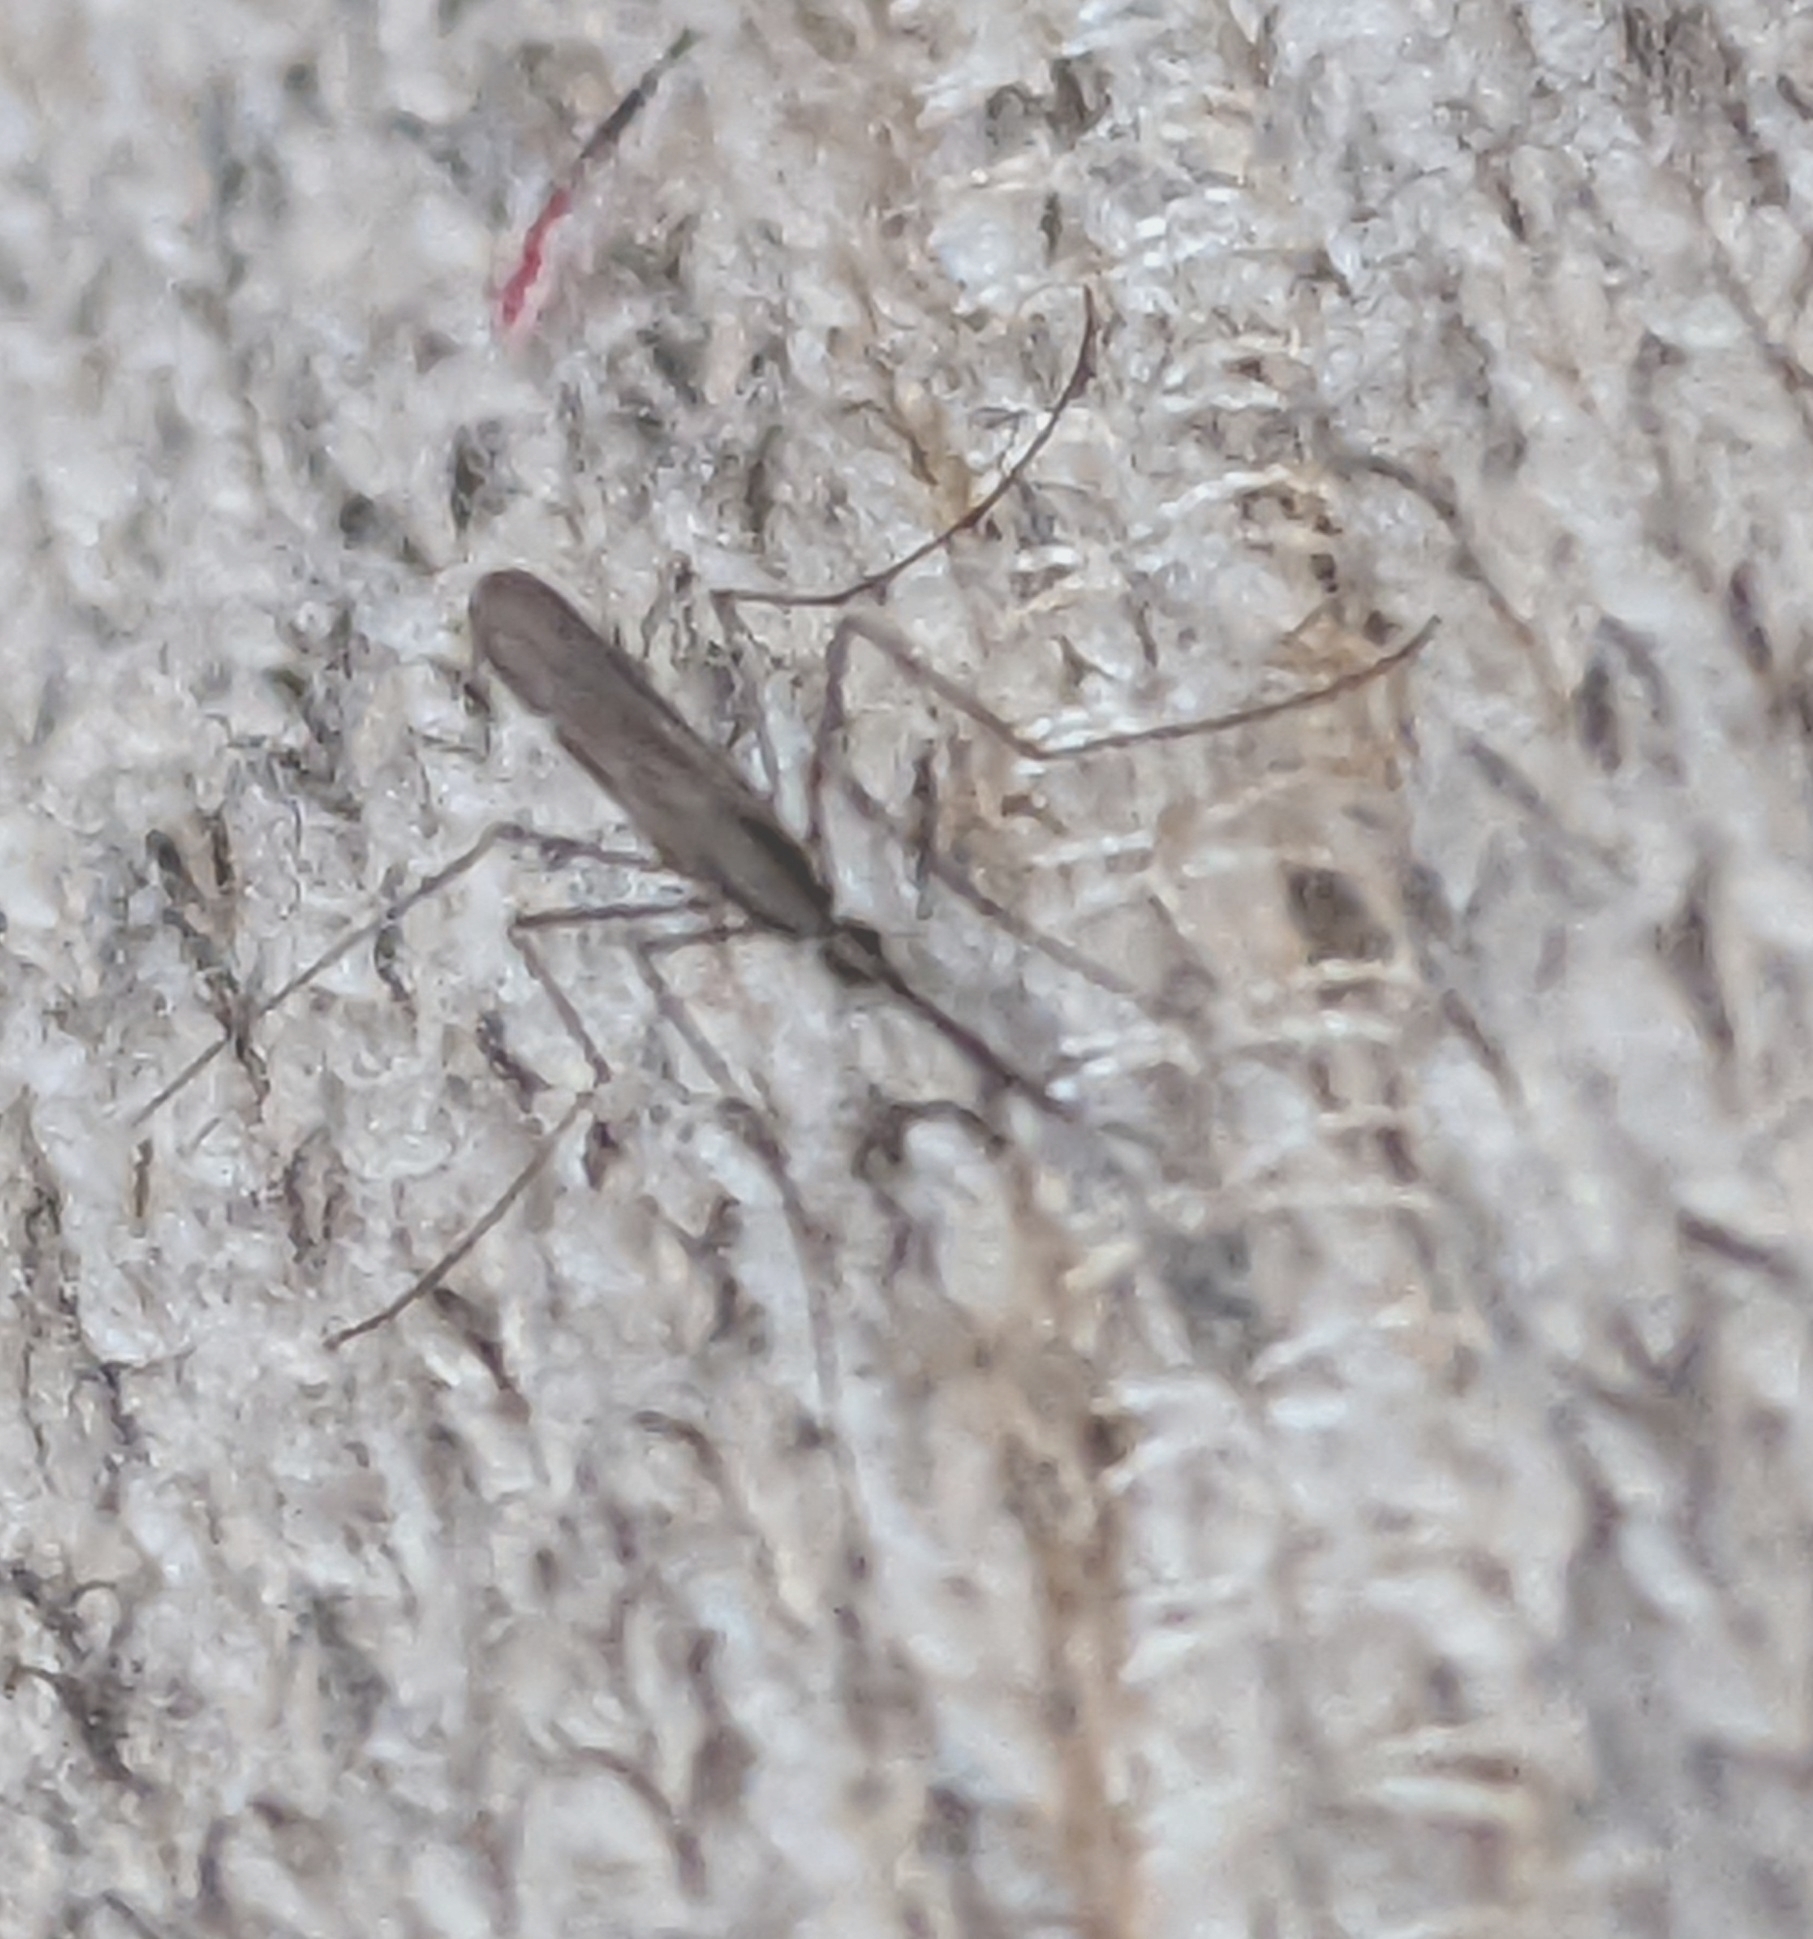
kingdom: Animalia
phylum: Arthropoda
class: Insecta
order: Diptera
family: Culicidae
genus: Anopheles
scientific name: Anopheles plumbeus
